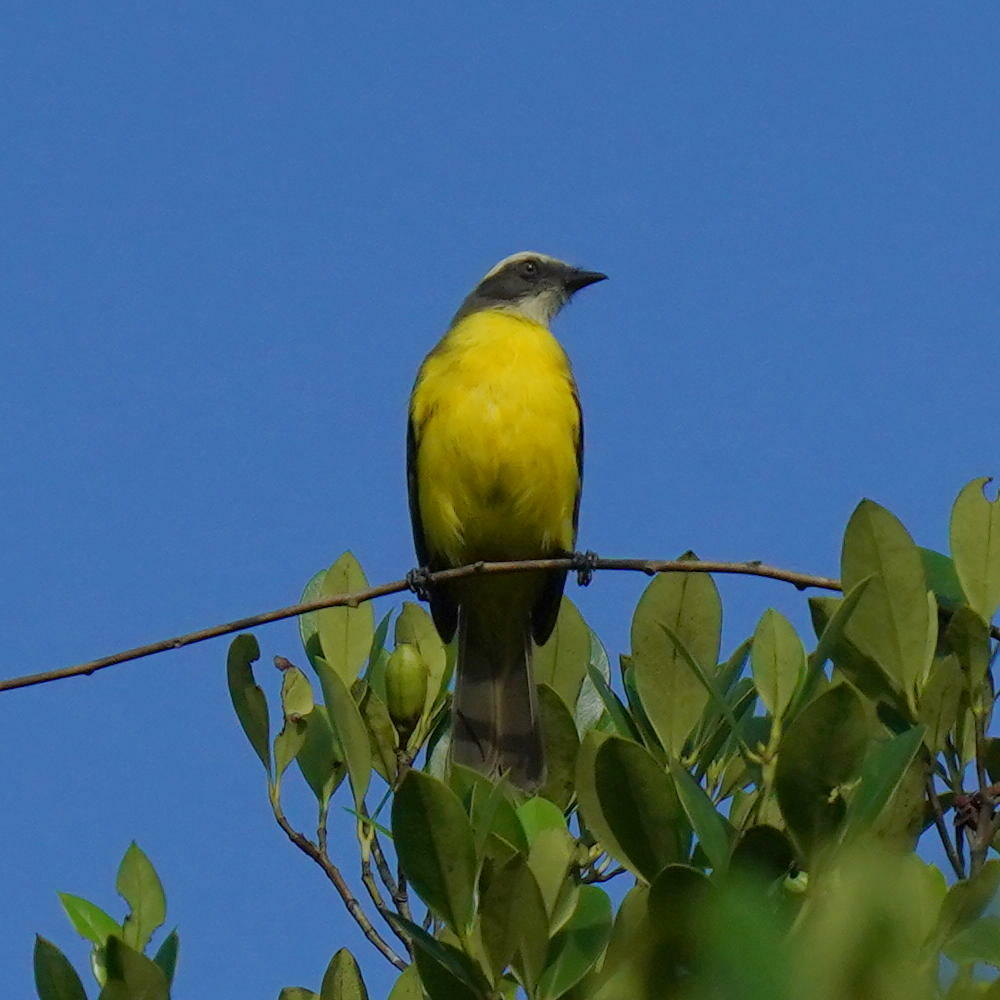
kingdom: Animalia
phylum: Chordata
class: Aves
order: Passeriformes
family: Tyrannidae
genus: Myiozetetes
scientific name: Myiozetetes similis
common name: Social flycatcher
